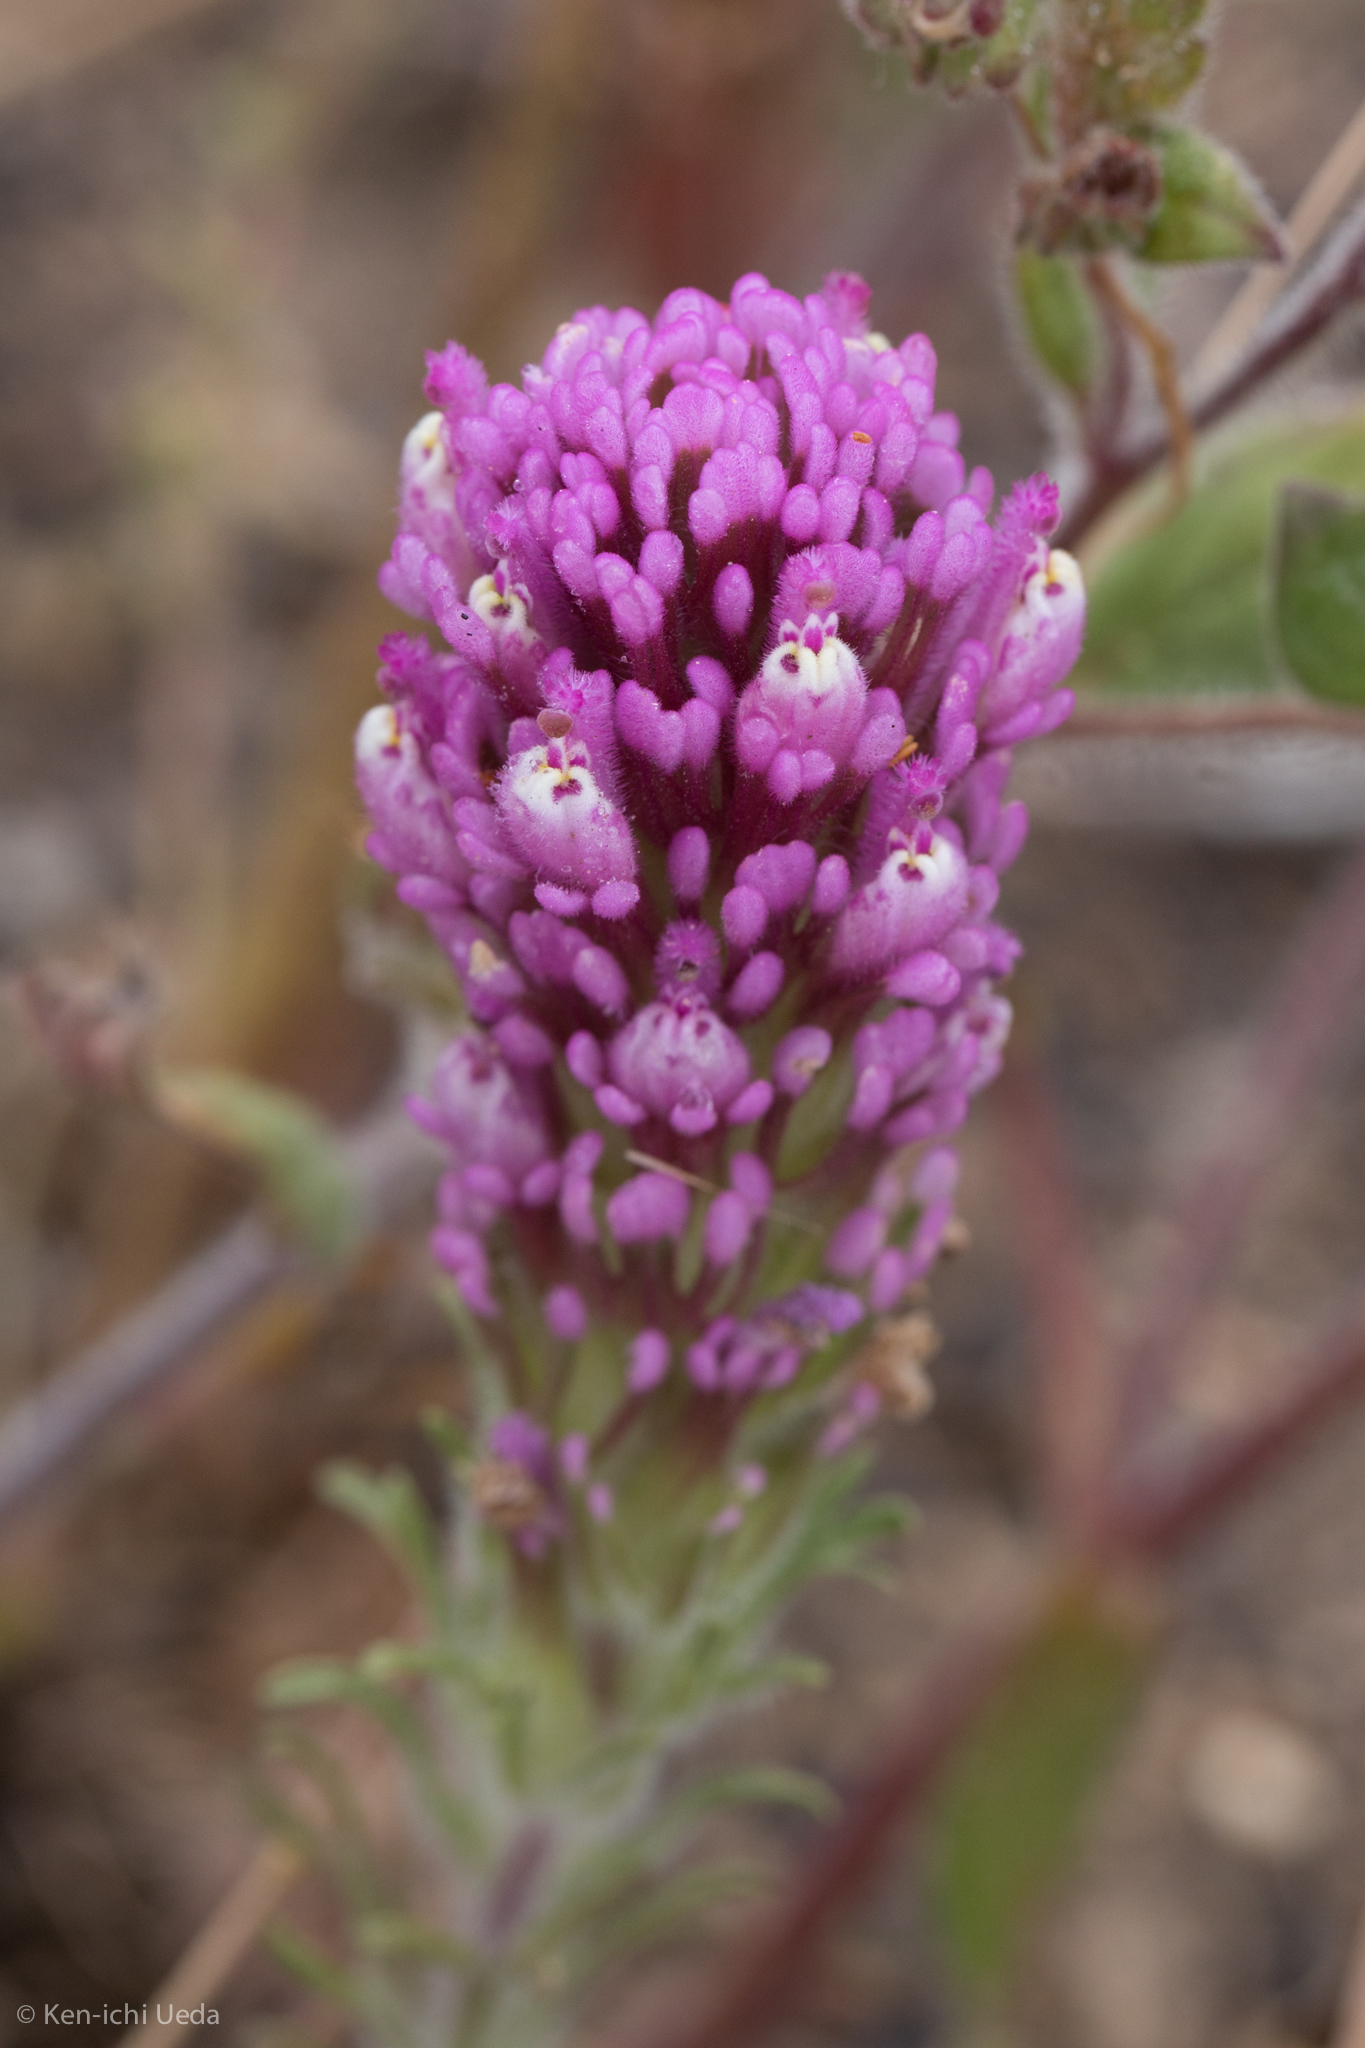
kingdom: Plantae
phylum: Tracheophyta
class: Magnoliopsida
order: Lamiales
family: Orobanchaceae
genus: Castilleja
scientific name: Castilleja exserta
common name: Purple owl-clover
